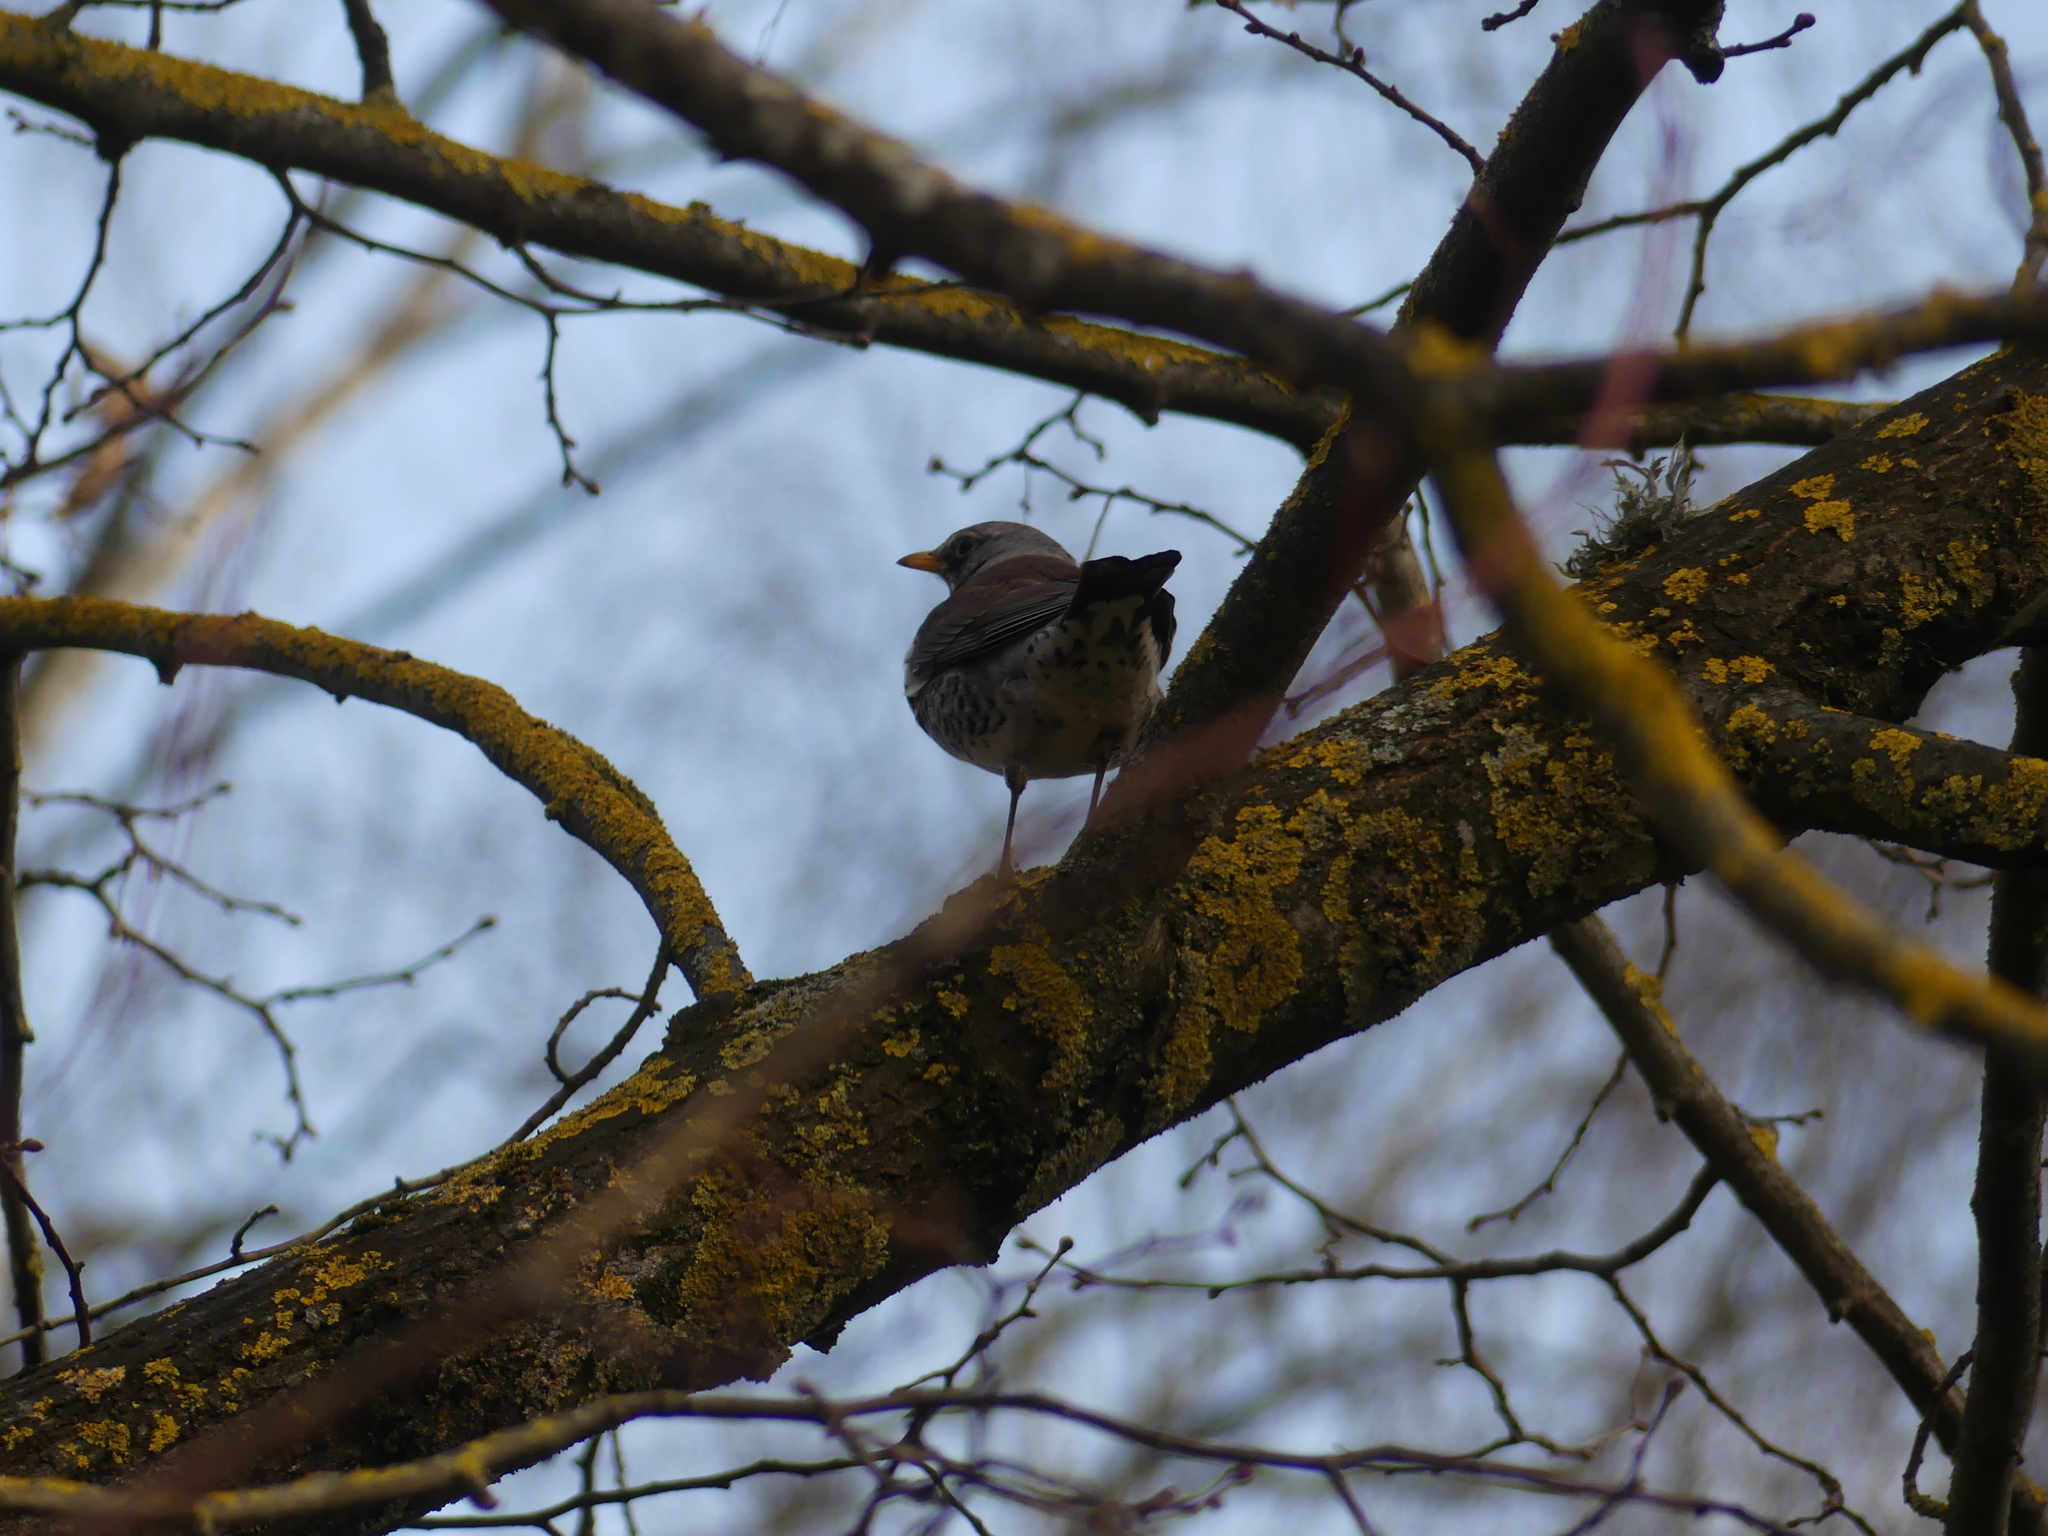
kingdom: Animalia
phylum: Chordata
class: Aves
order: Passeriformes
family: Turdidae
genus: Turdus
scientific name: Turdus pilaris
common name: Fieldfare
